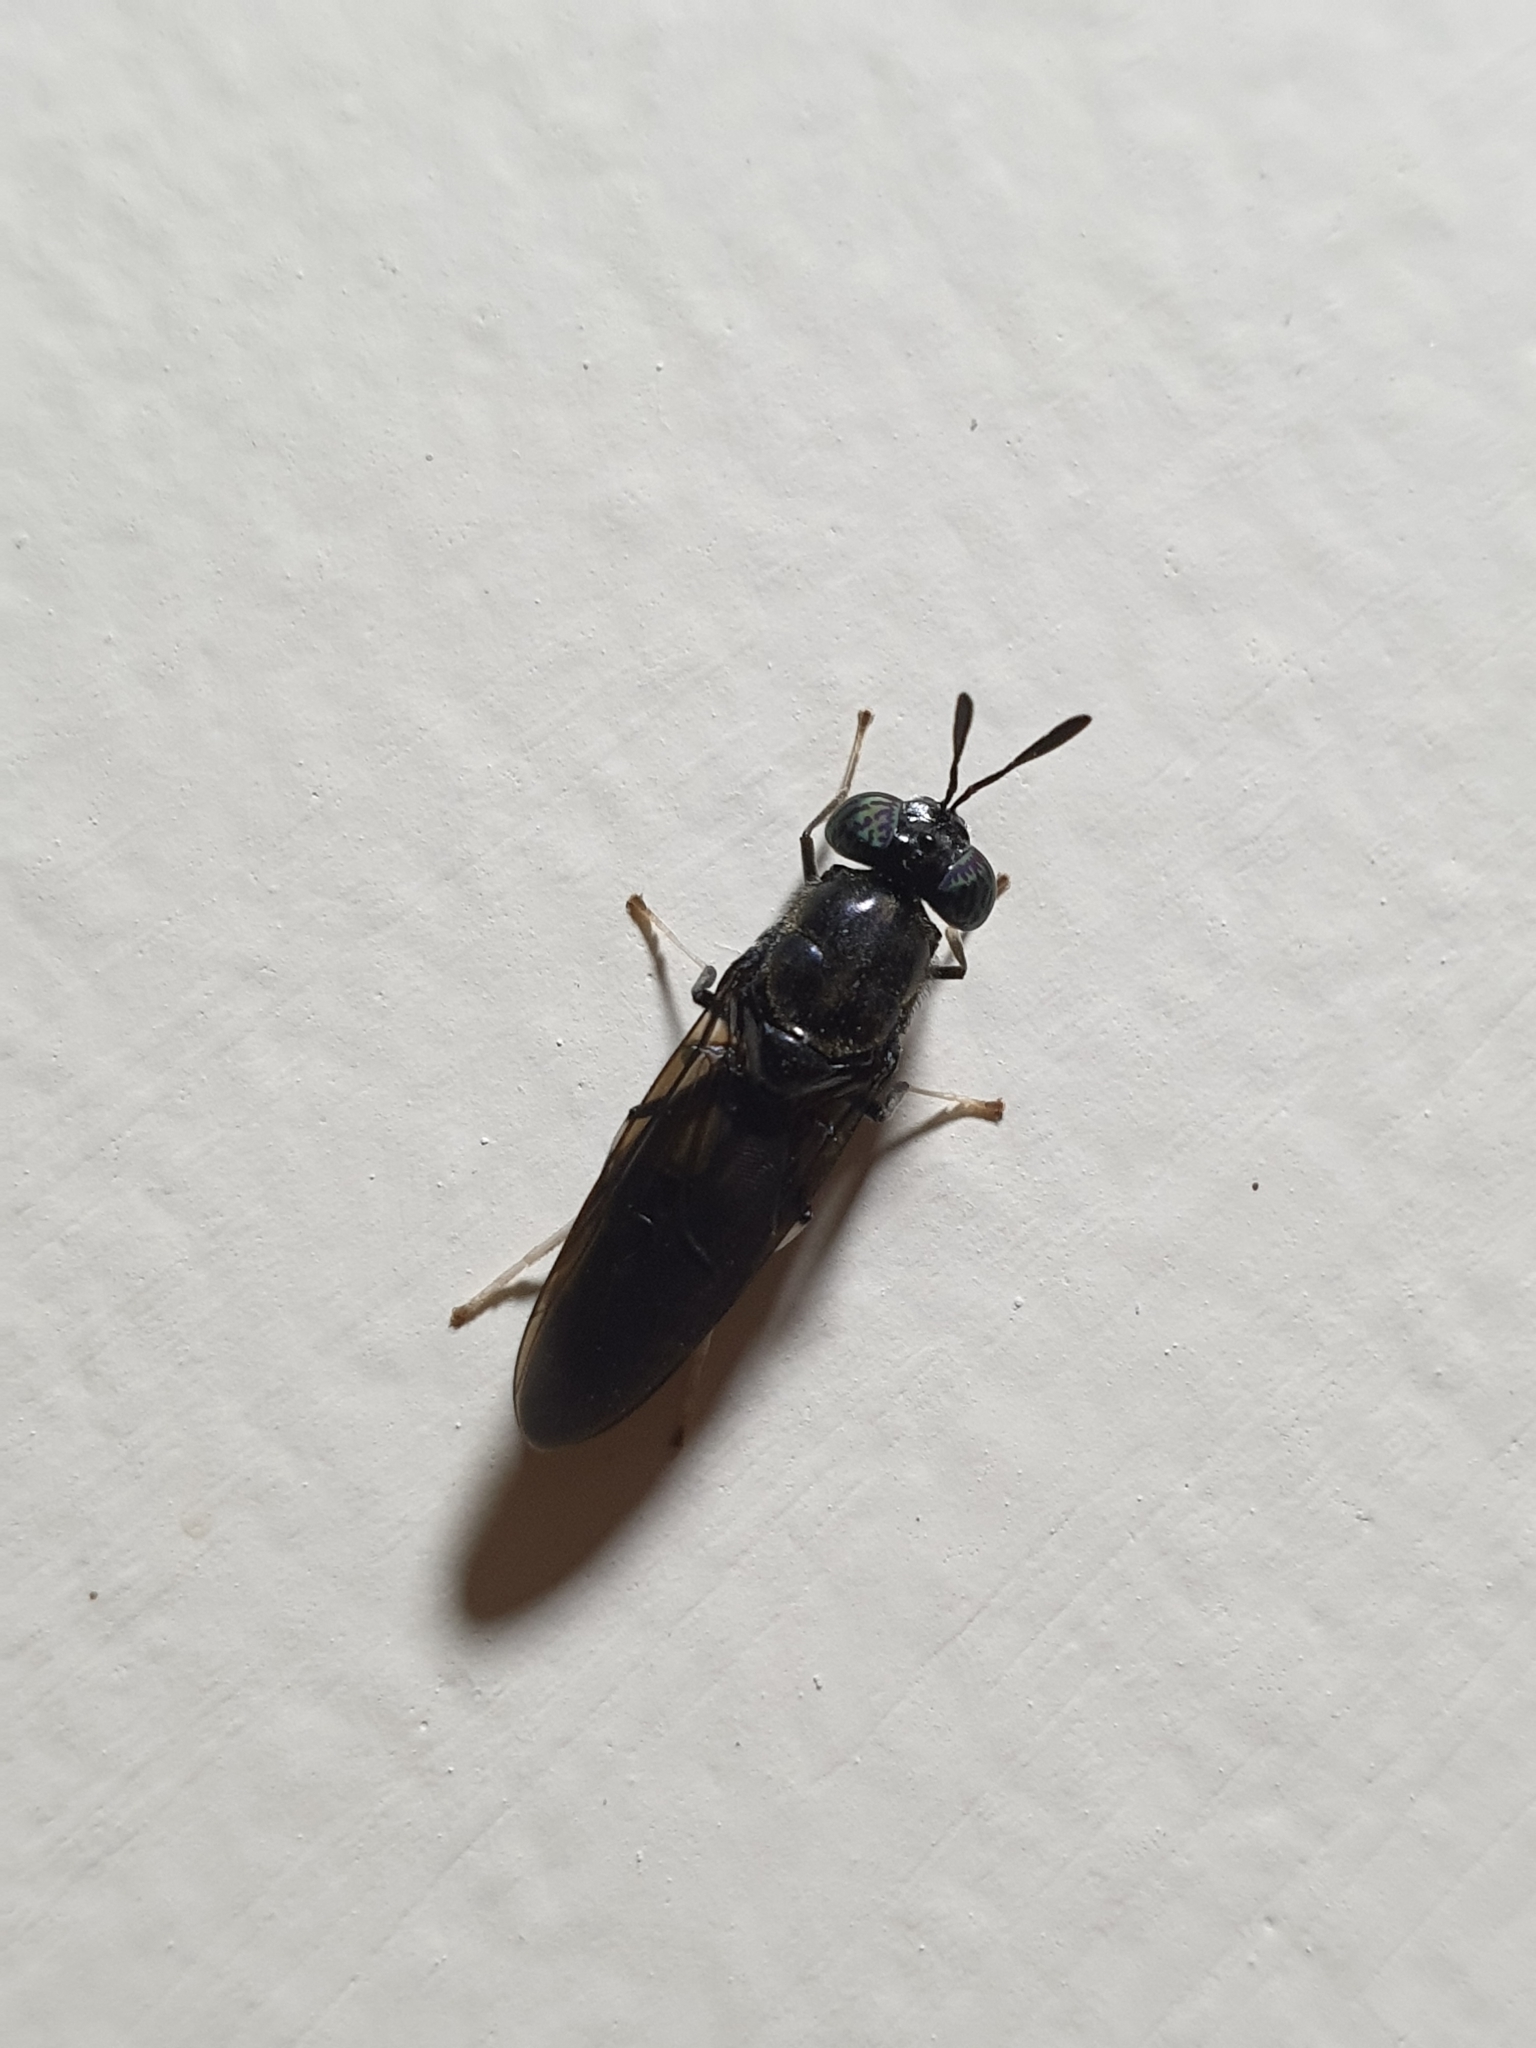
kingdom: Animalia
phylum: Arthropoda
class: Insecta
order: Diptera
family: Stratiomyidae
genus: Hermetia
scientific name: Hermetia illucens
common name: Black soldier fly
